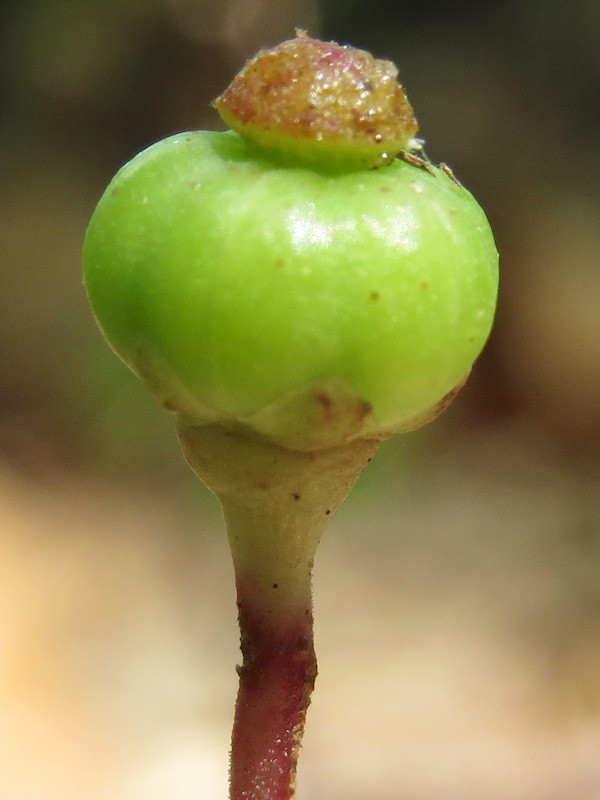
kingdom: Plantae
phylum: Tracheophyta
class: Magnoliopsida
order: Ericales
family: Ericaceae
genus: Chimaphila
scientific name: Chimaphila maculata
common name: Spotted pipsissewa
